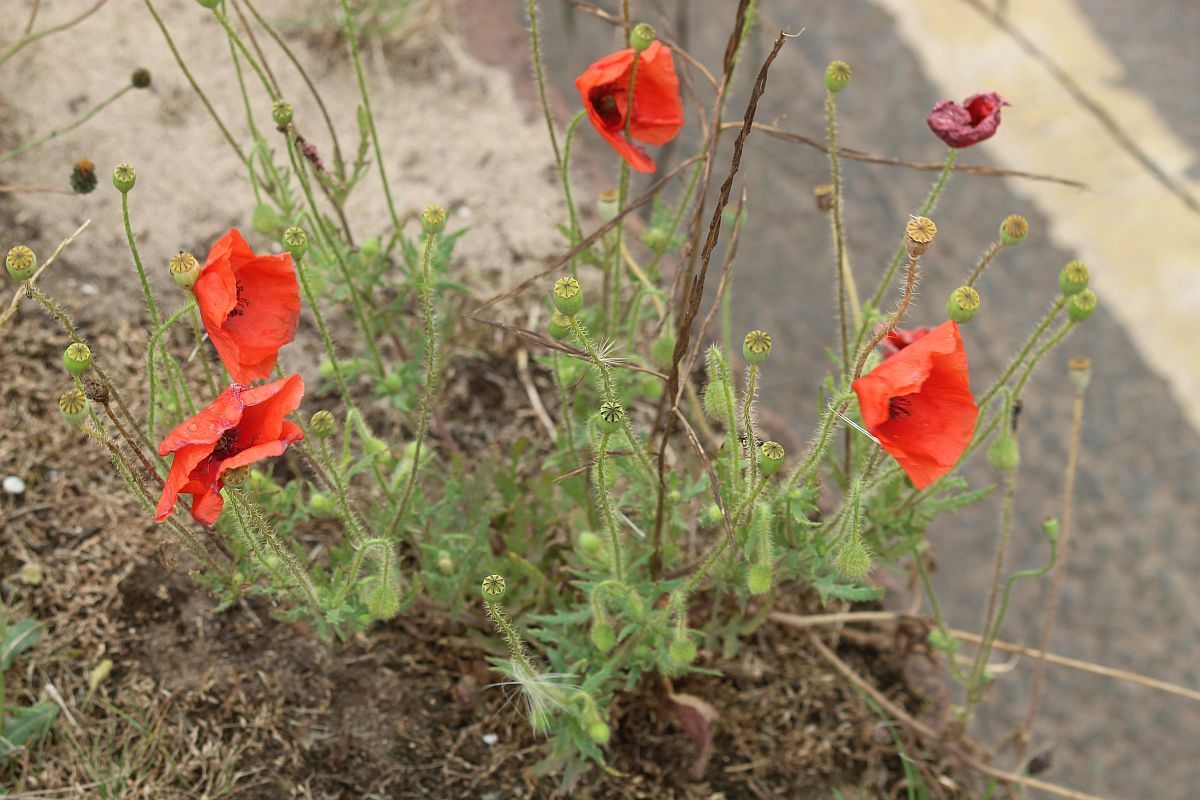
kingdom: Plantae
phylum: Tracheophyta
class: Magnoliopsida
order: Ranunculales
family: Papaveraceae
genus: Papaver
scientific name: Papaver rhoeas
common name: Corn poppy
